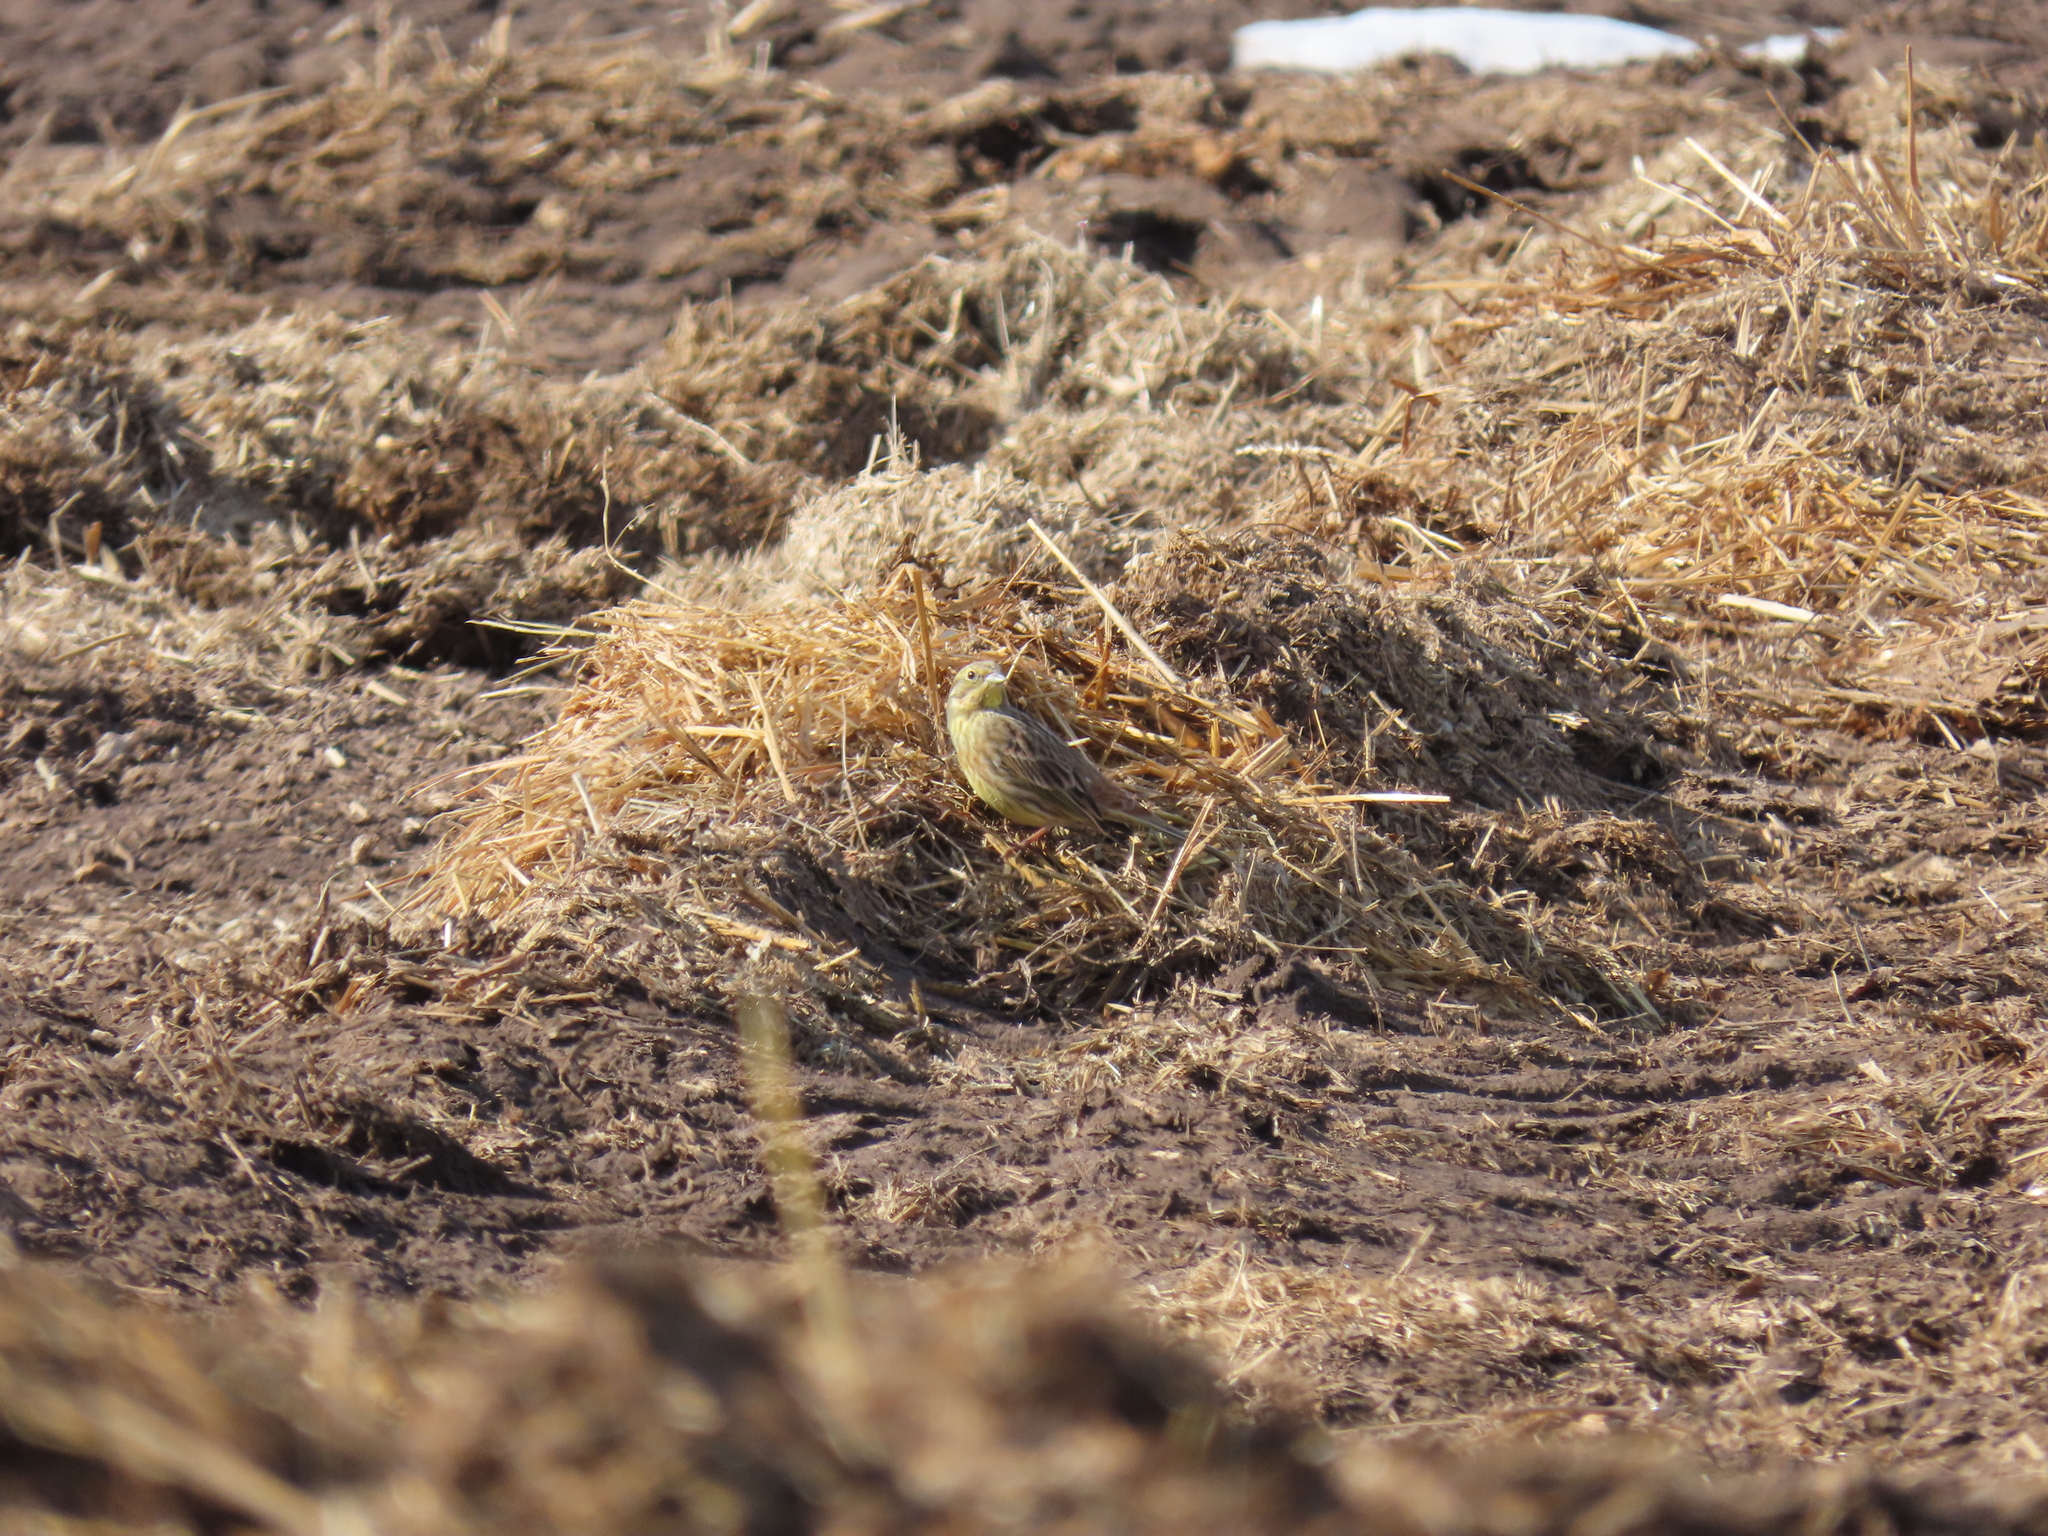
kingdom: Animalia
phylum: Chordata
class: Aves
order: Passeriformes
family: Emberizidae
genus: Emberiza
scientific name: Emberiza citrinella
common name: Yellowhammer
